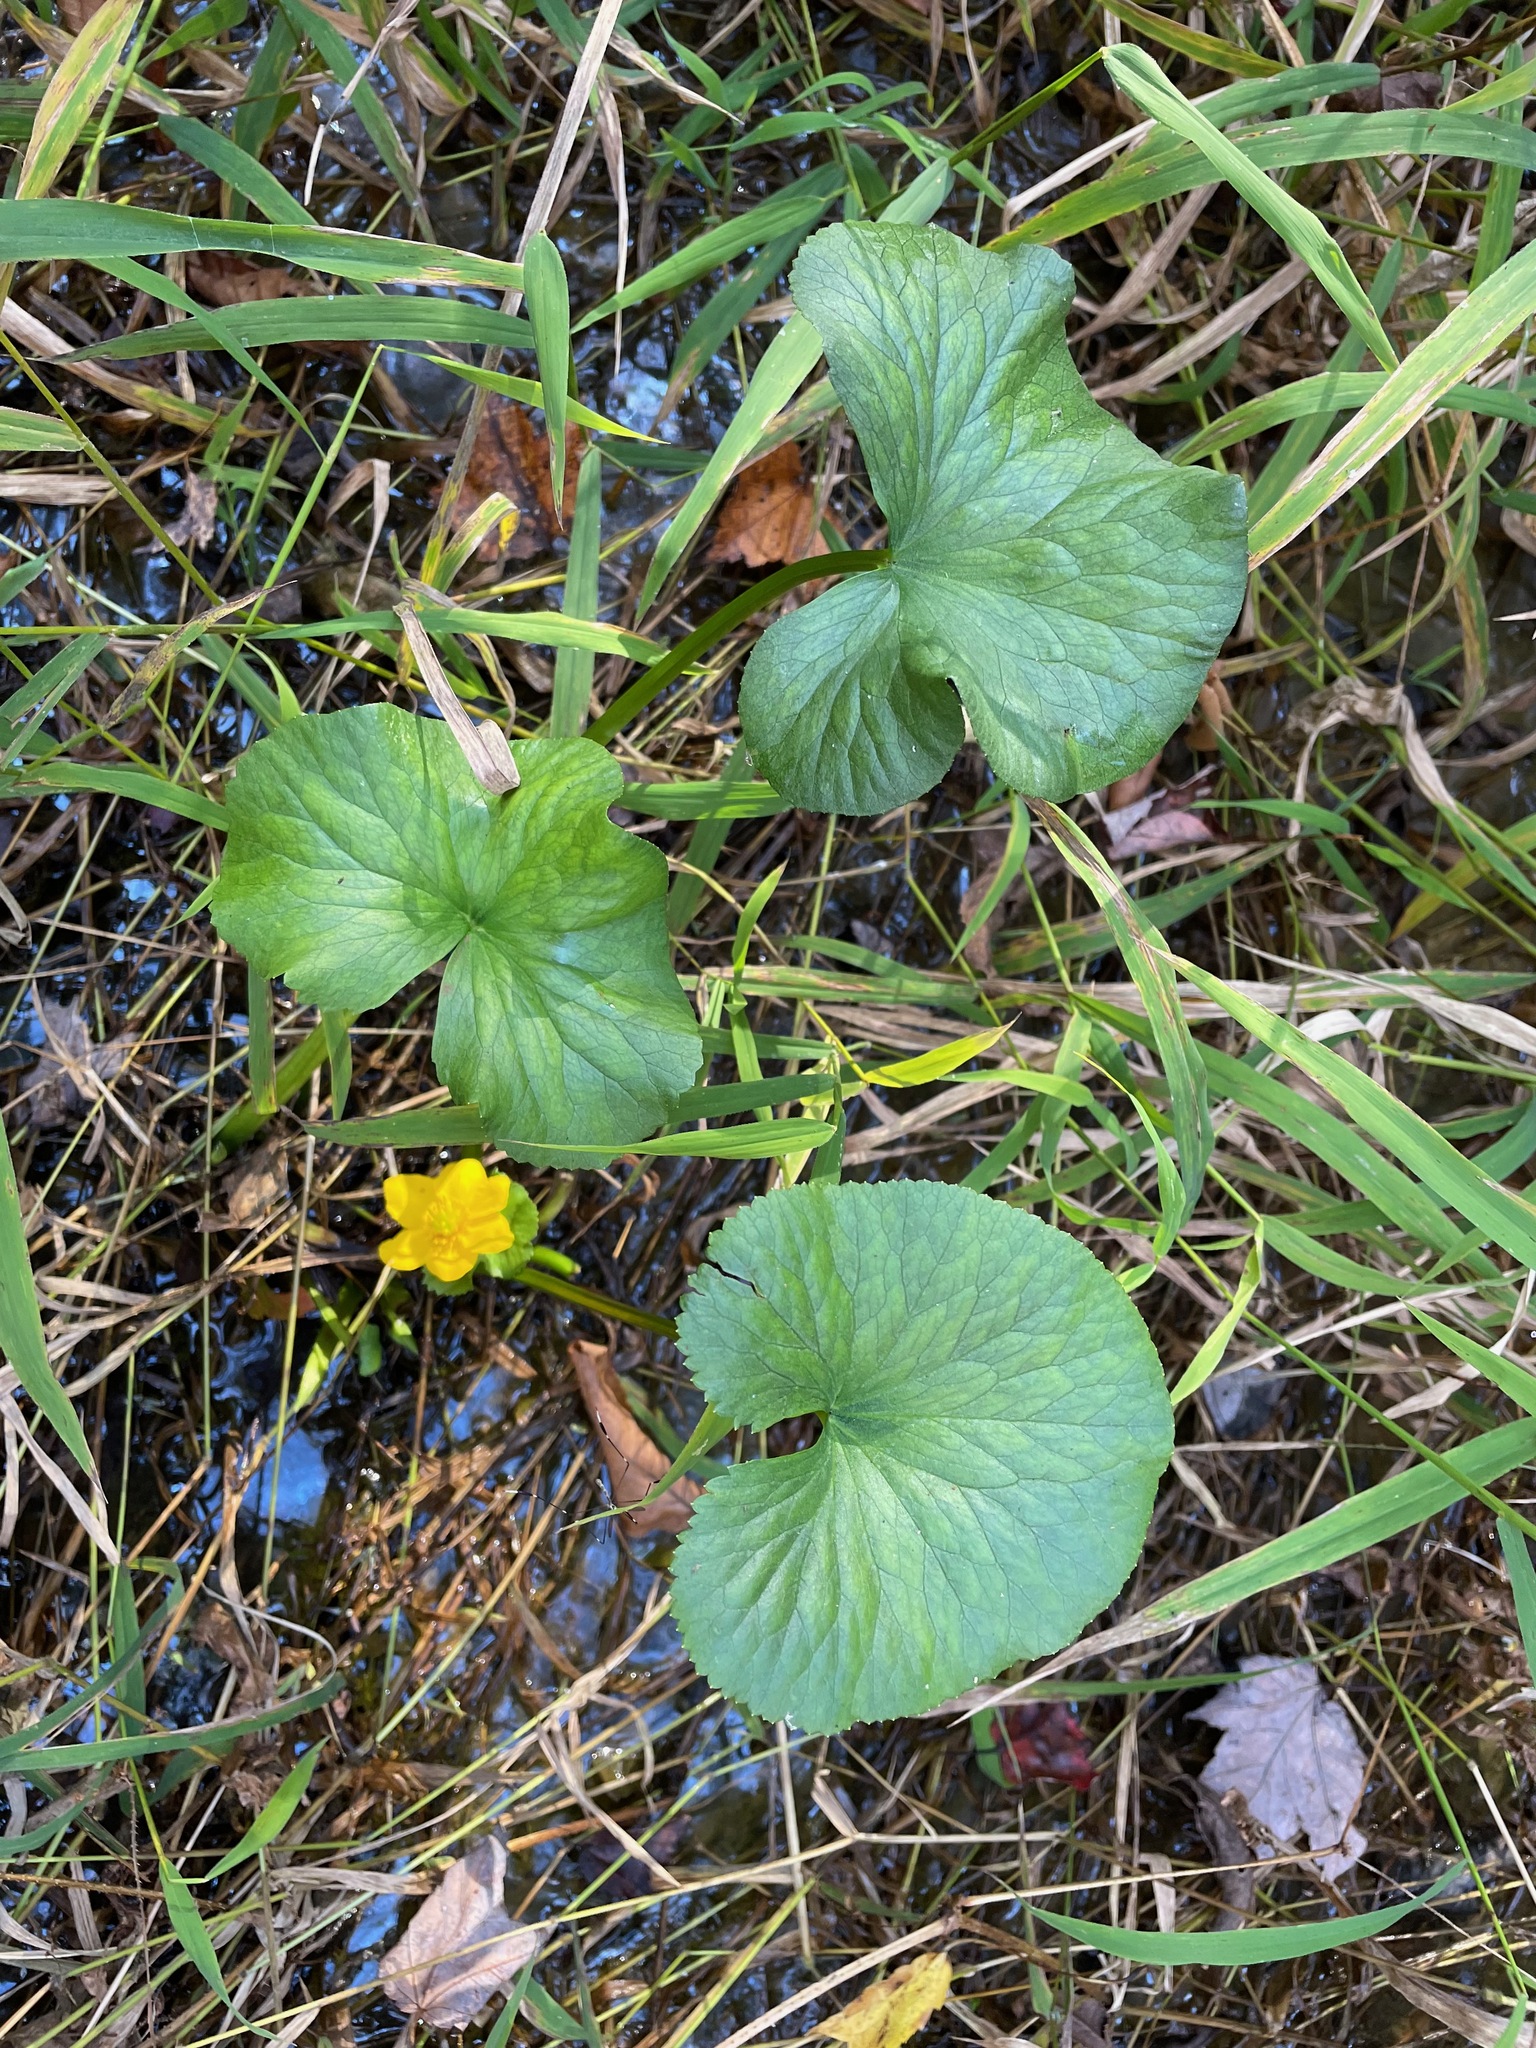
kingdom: Plantae
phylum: Tracheophyta
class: Magnoliopsida
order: Ranunculales
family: Ranunculaceae
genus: Caltha
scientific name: Caltha palustris
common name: Marsh marigold
